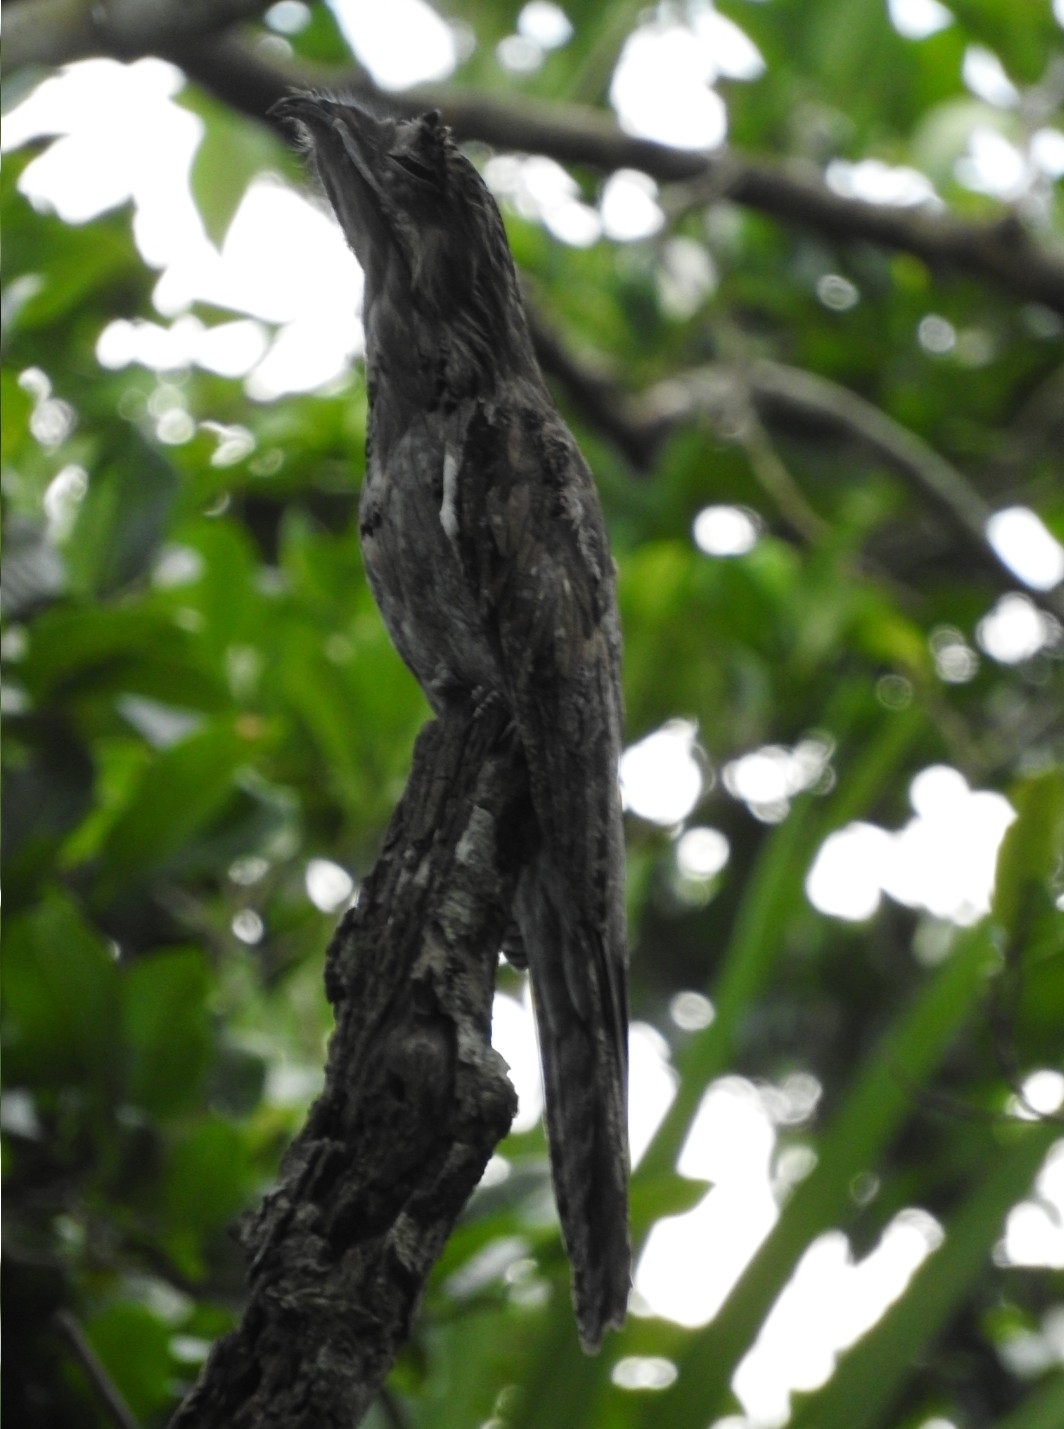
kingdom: Animalia
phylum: Chordata
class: Aves
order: Nyctibiiformes
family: Nyctibiidae
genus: Nyctibius
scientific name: Nyctibius jamaicensis
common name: Northern potoo
